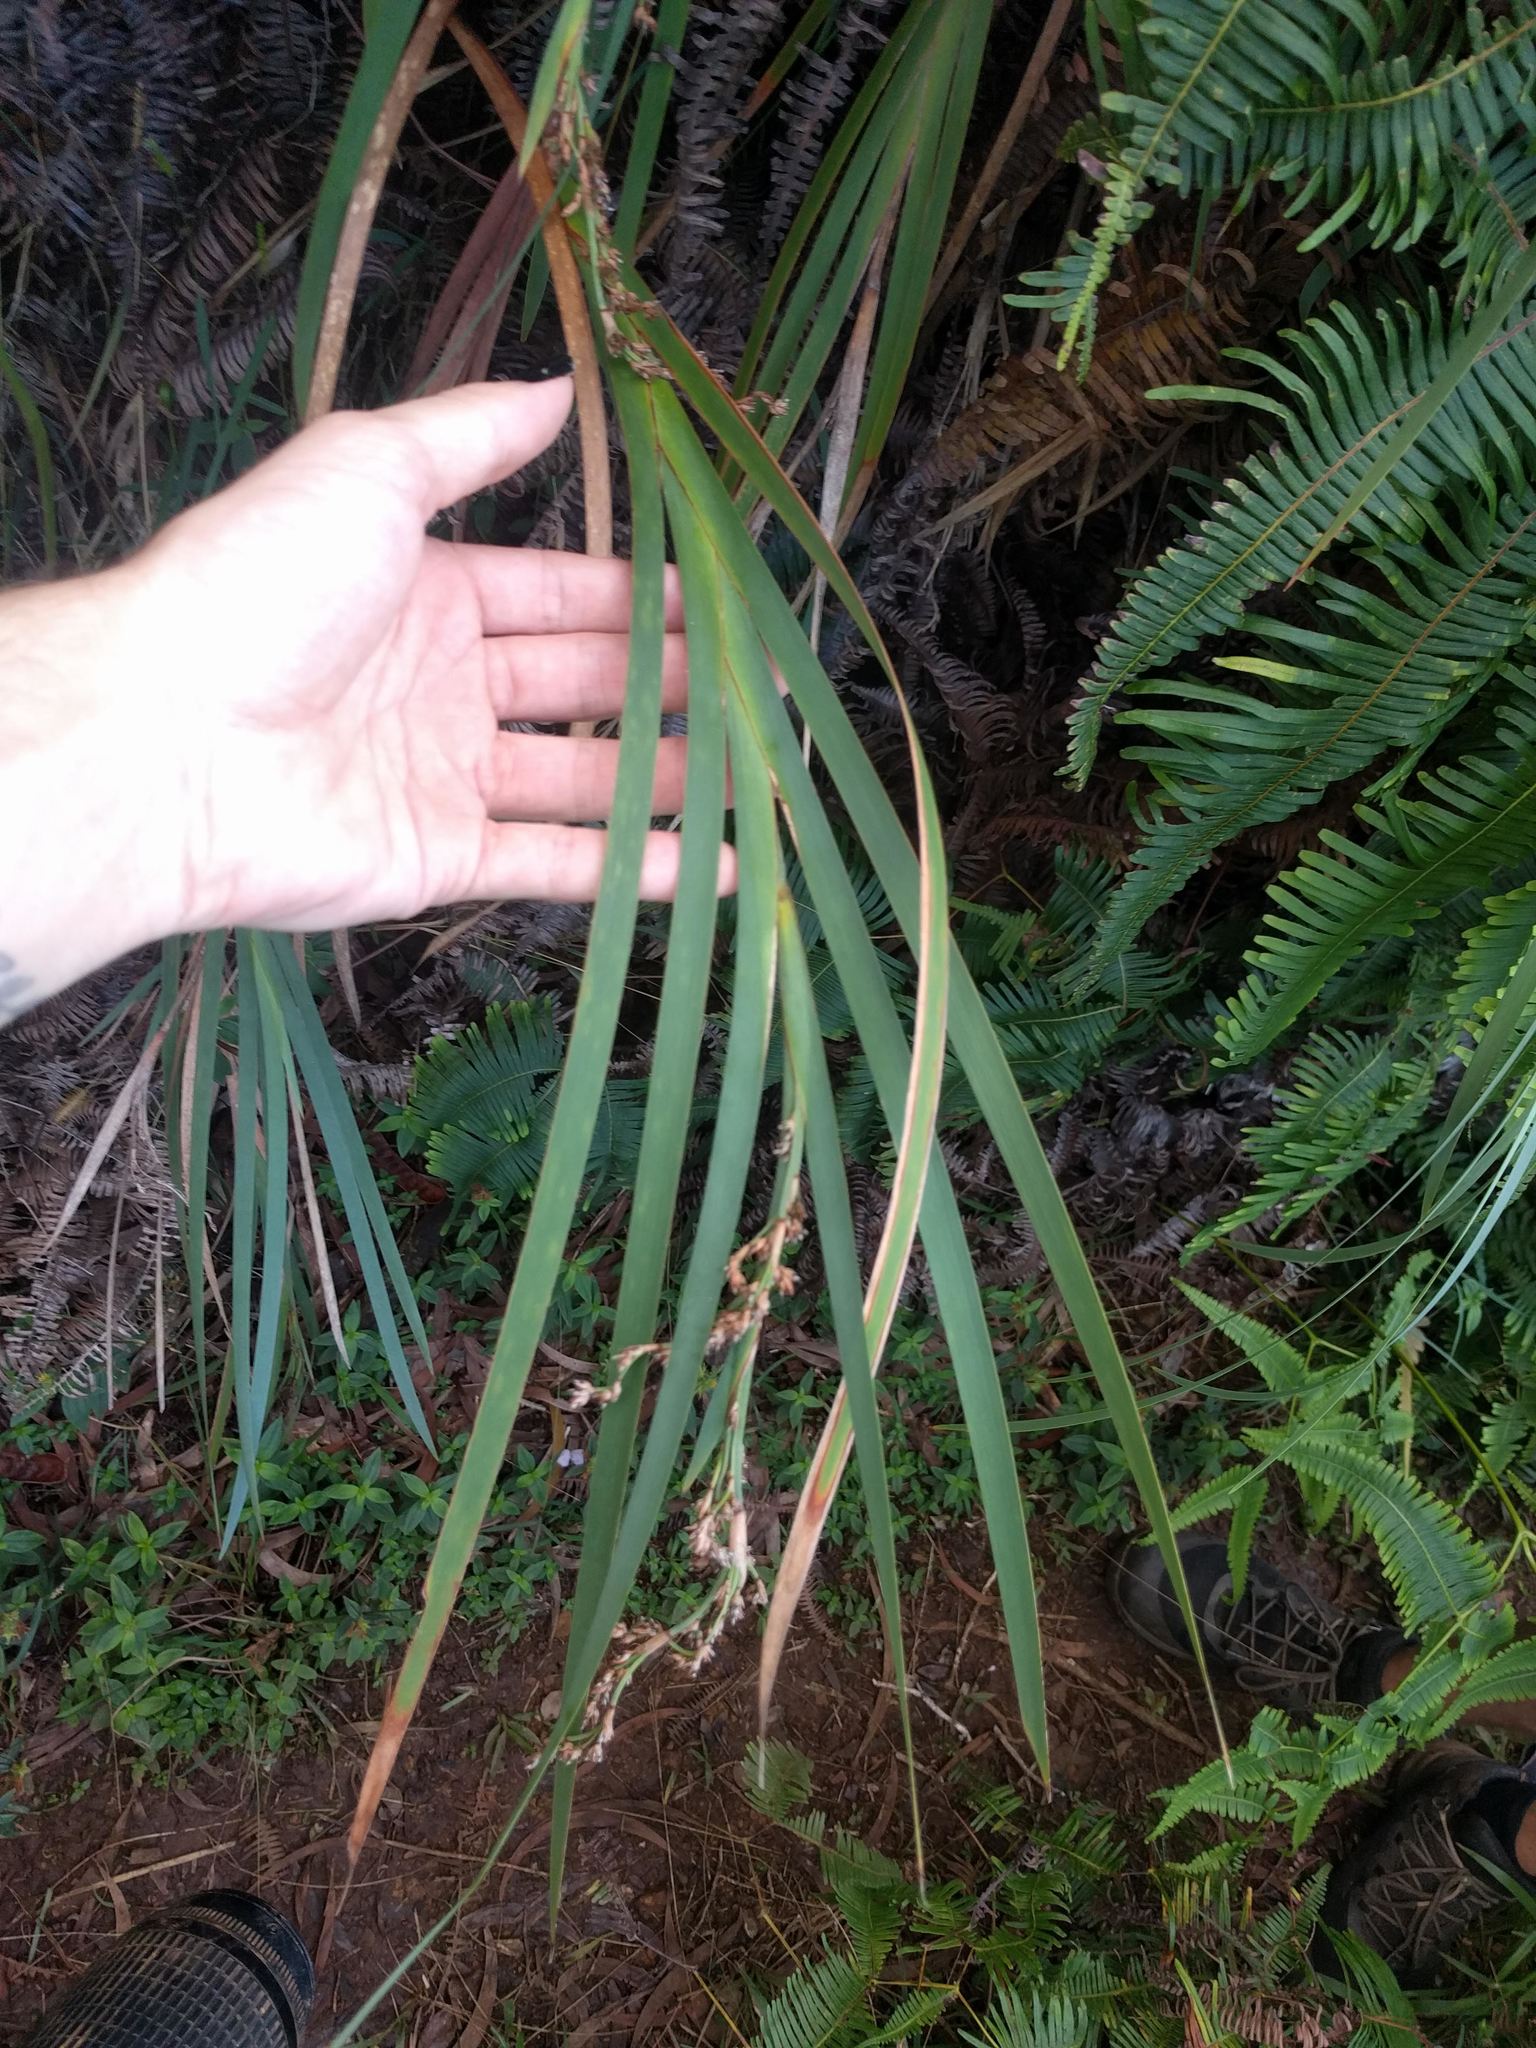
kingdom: Plantae
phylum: Tracheophyta
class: Liliopsida
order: Poales
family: Cyperaceae
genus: Machaerina
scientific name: Machaerina mariscoides
